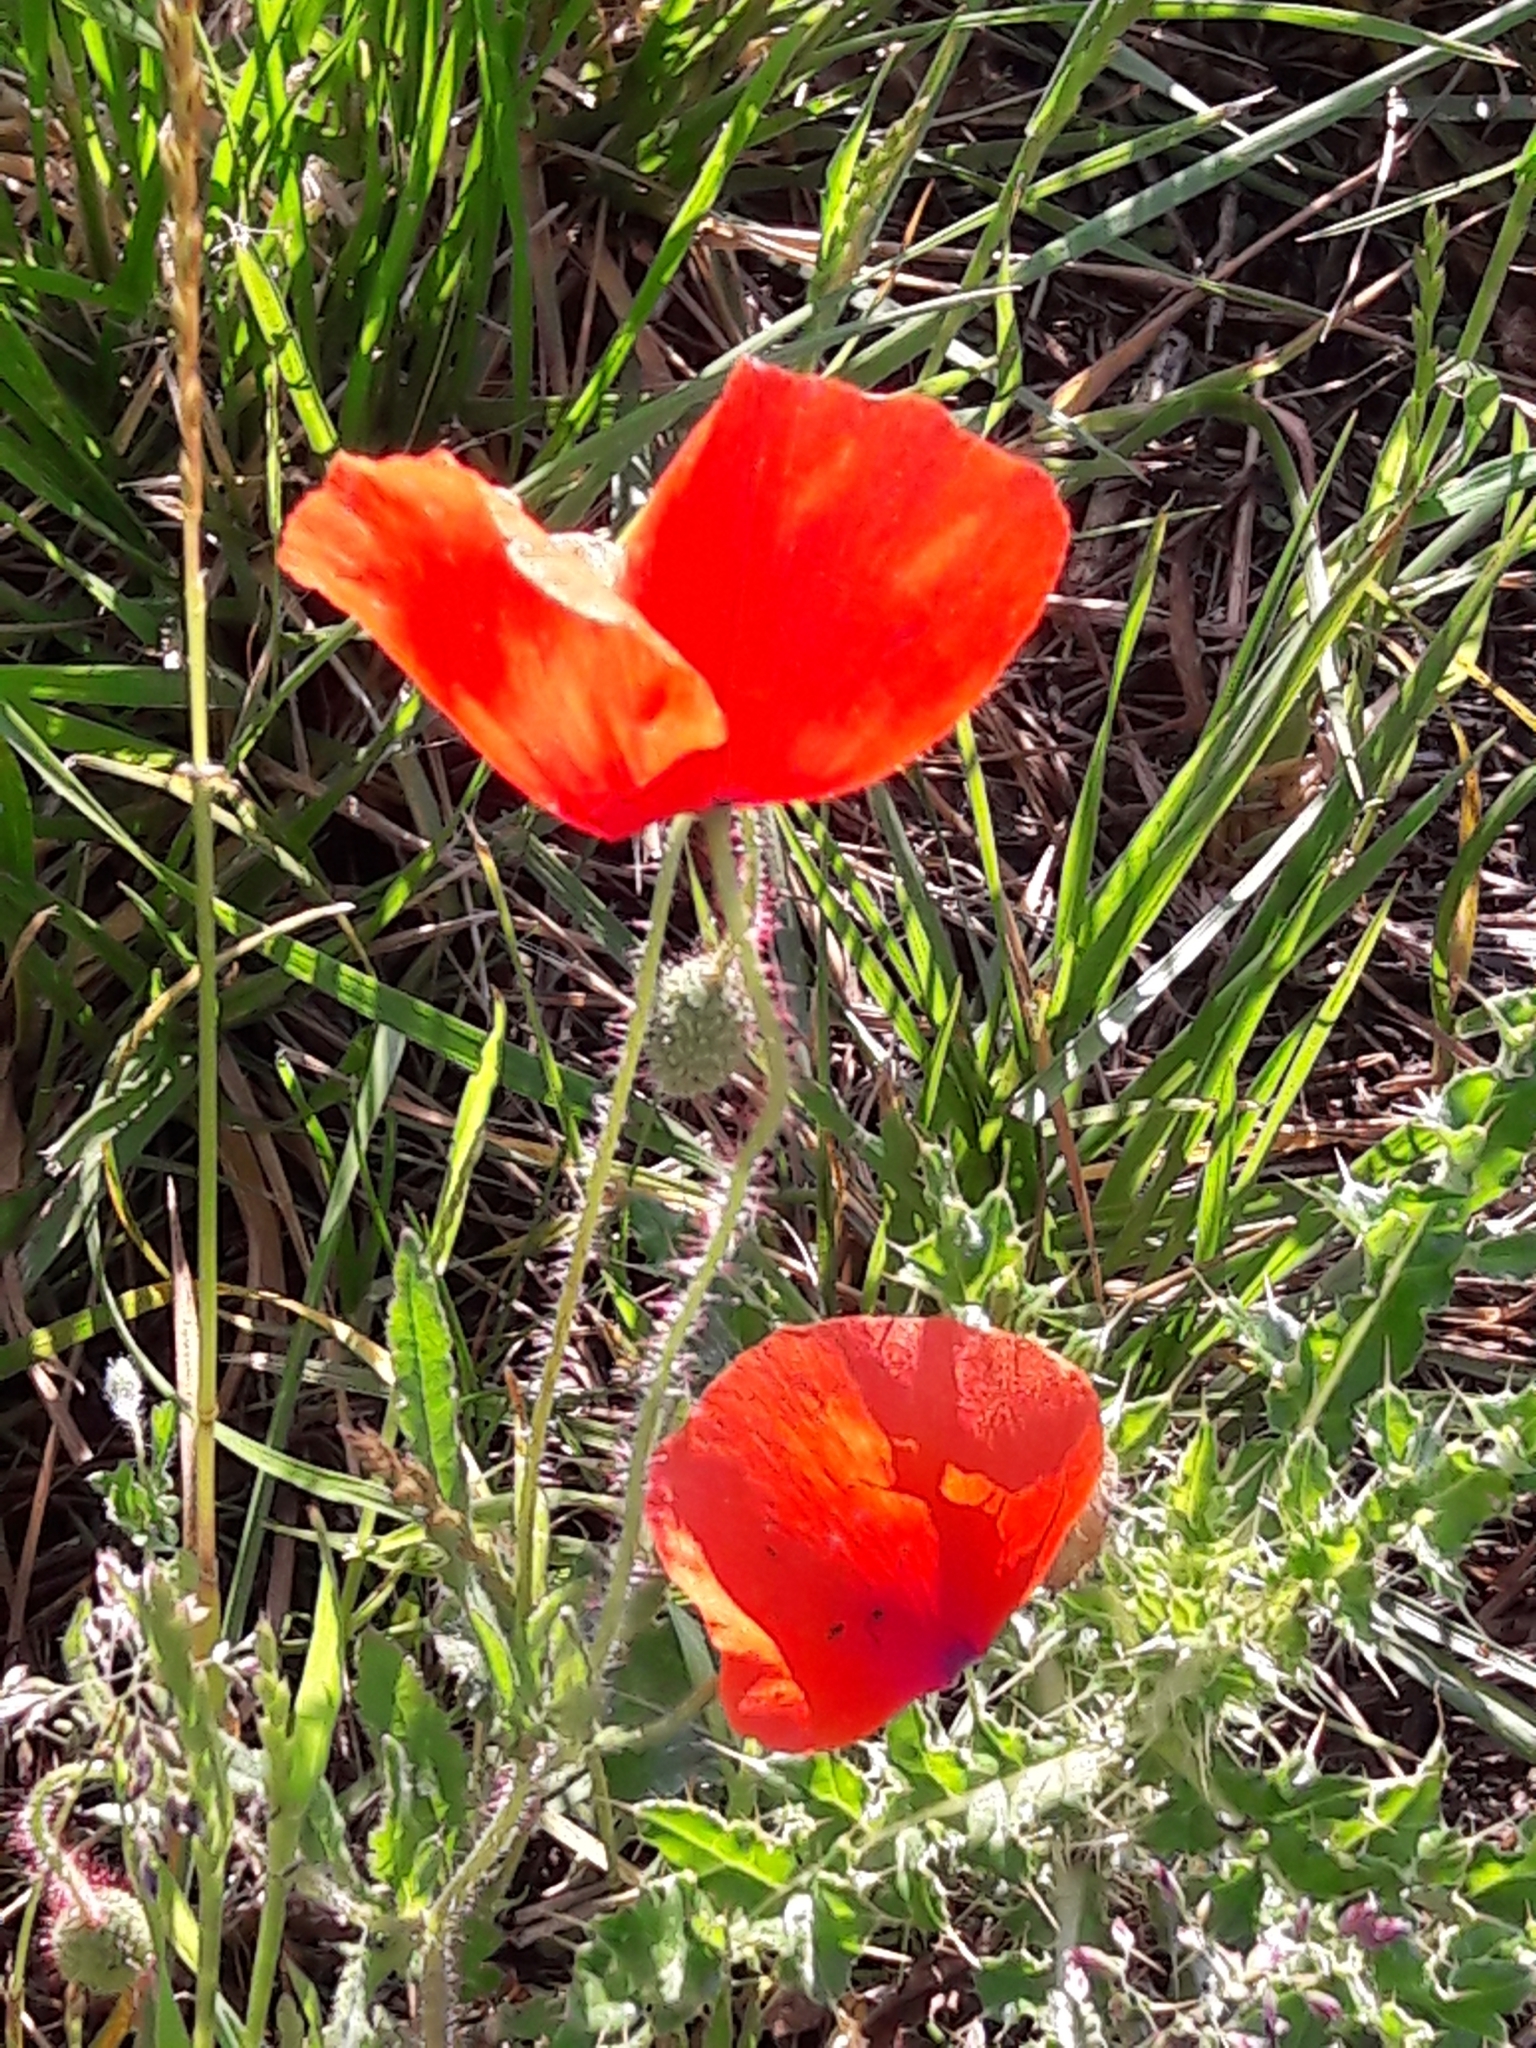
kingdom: Plantae
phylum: Tracheophyta
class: Magnoliopsida
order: Ranunculales
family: Papaveraceae
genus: Papaver
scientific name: Papaver rhoeas
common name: Corn poppy
